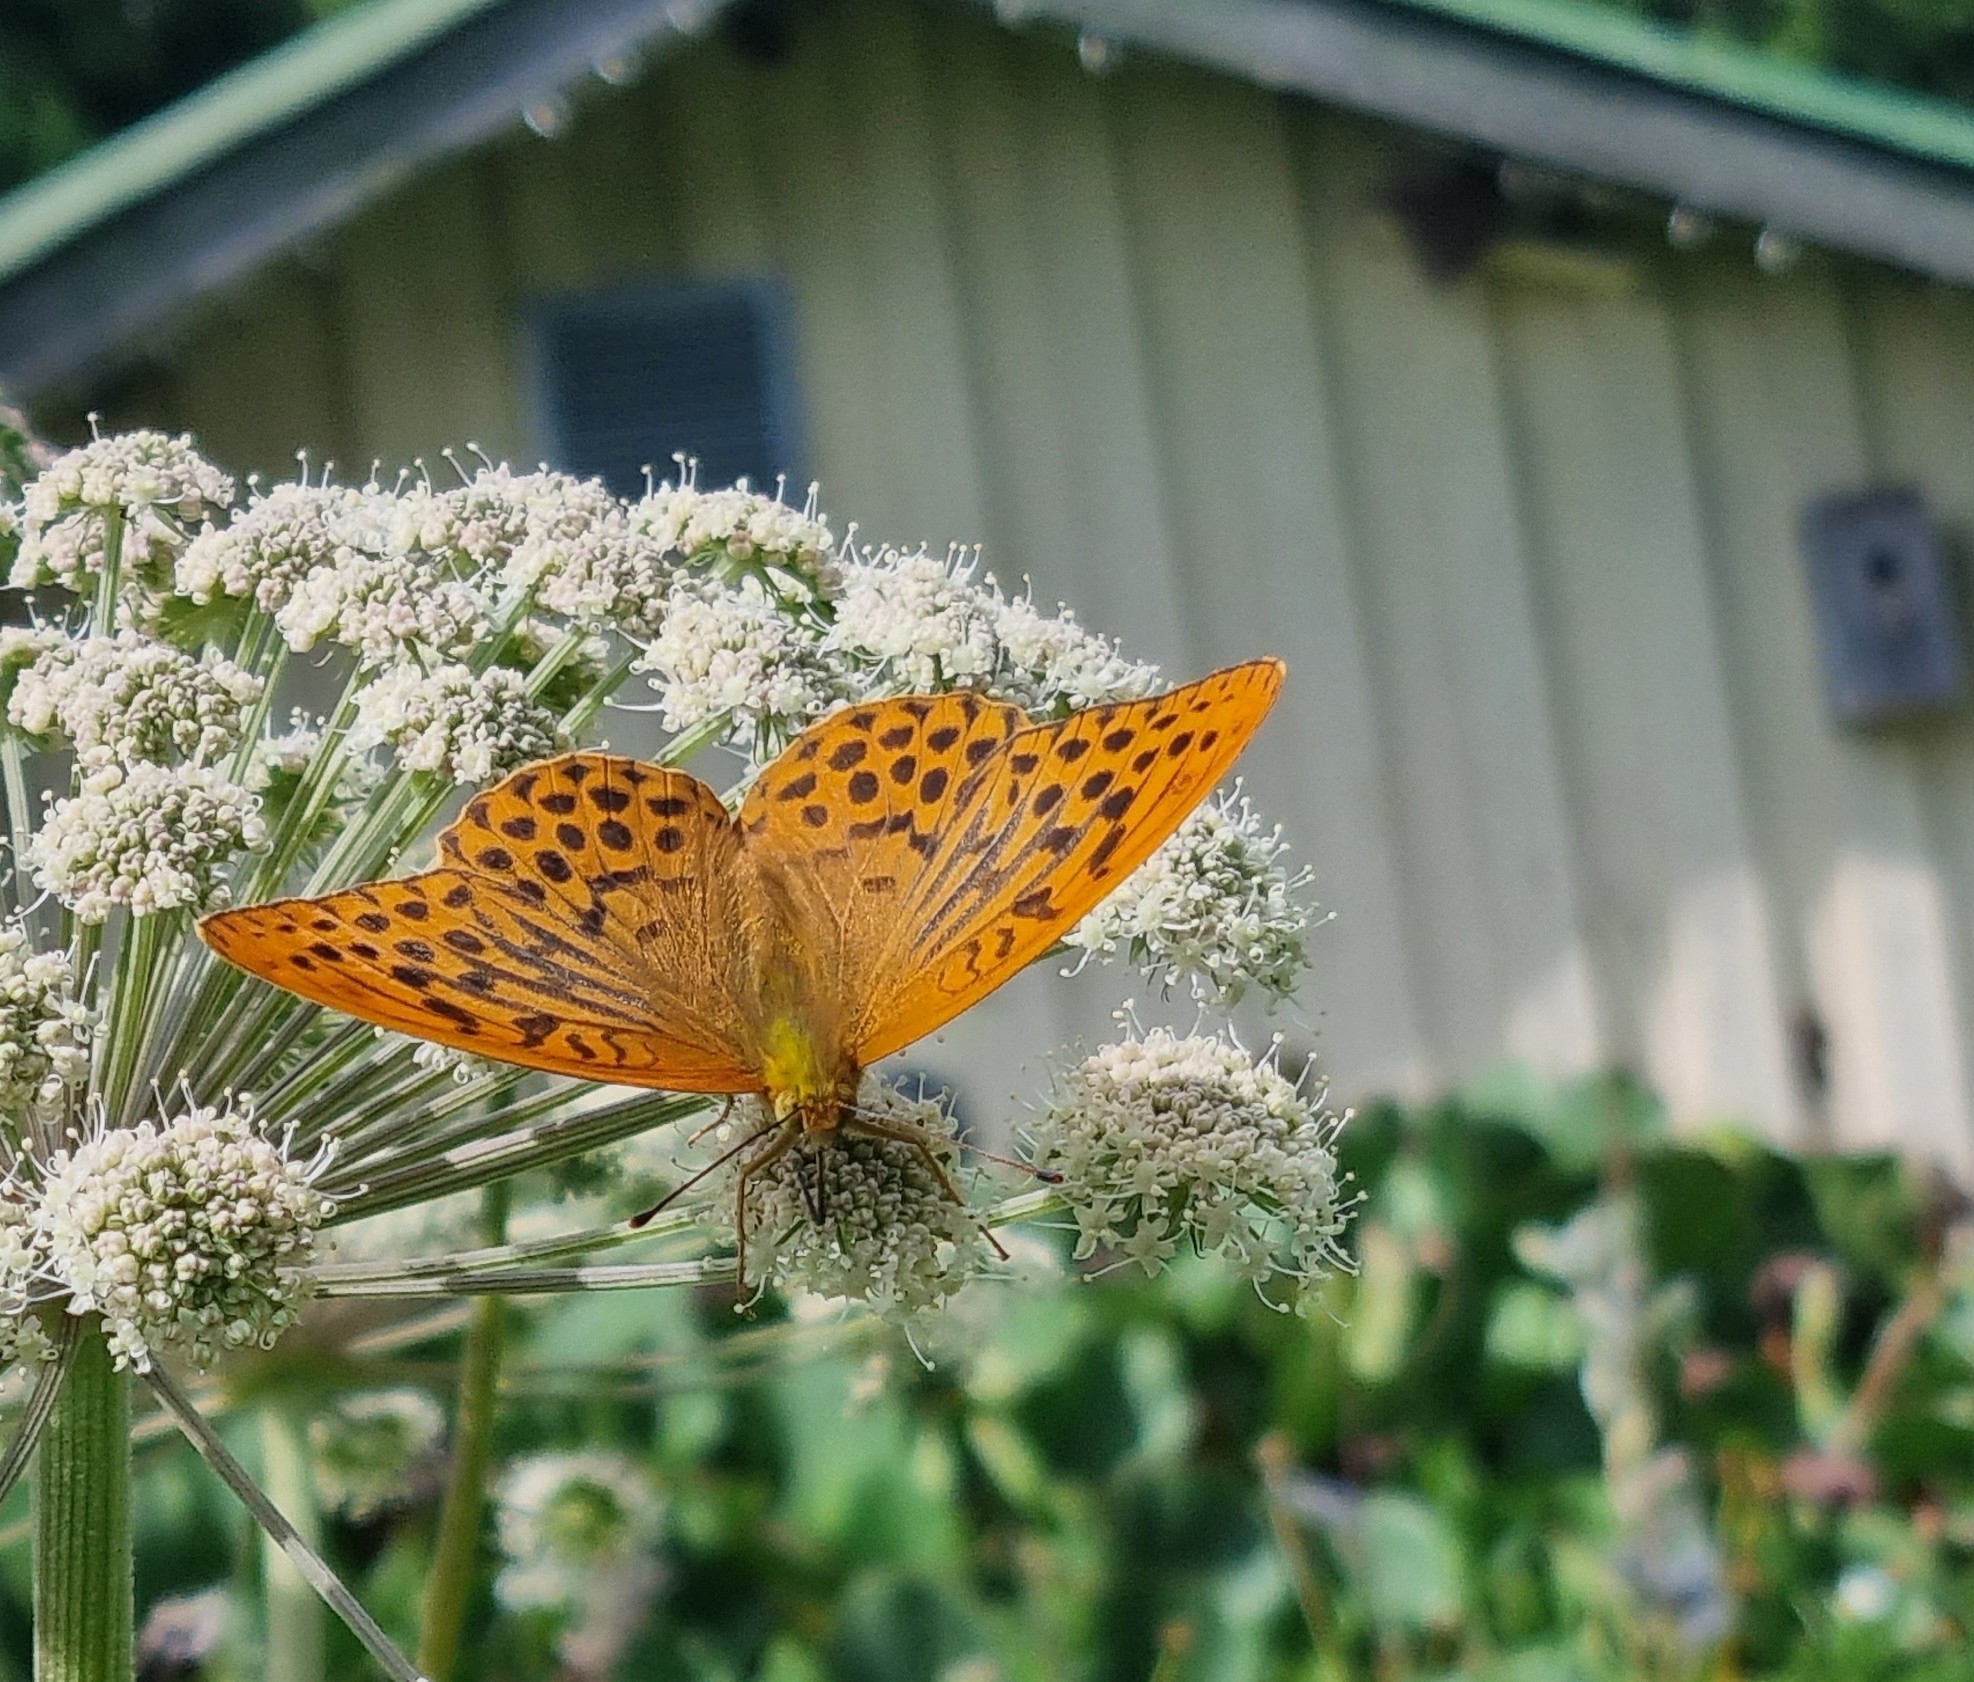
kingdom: Animalia
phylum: Arthropoda
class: Insecta
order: Lepidoptera
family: Nymphalidae
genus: Argynnis
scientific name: Argynnis paphia
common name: Silver-washed fritillary
